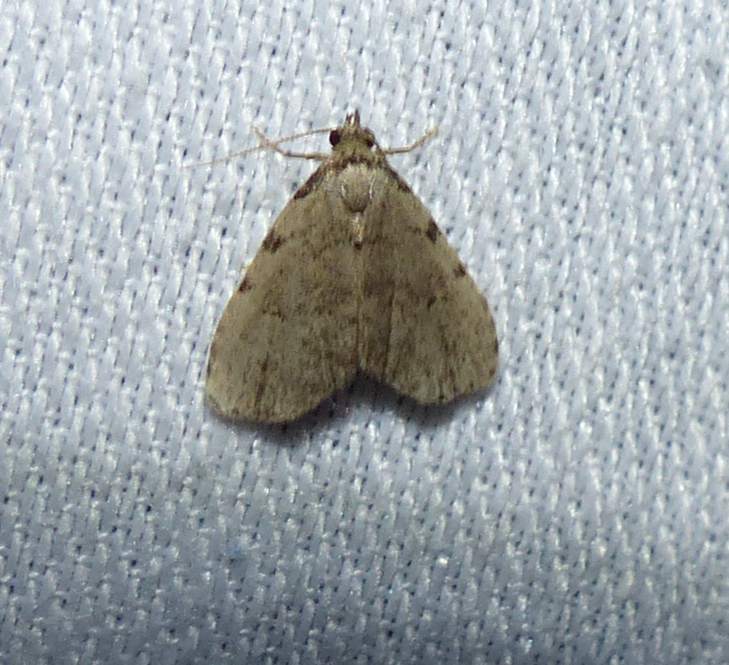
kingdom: Animalia
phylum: Arthropoda
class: Insecta
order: Lepidoptera
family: Erebidae
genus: Dyspyralis
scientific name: Dyspyralis puncticosta
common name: Spot-edged dyspyralis moth
